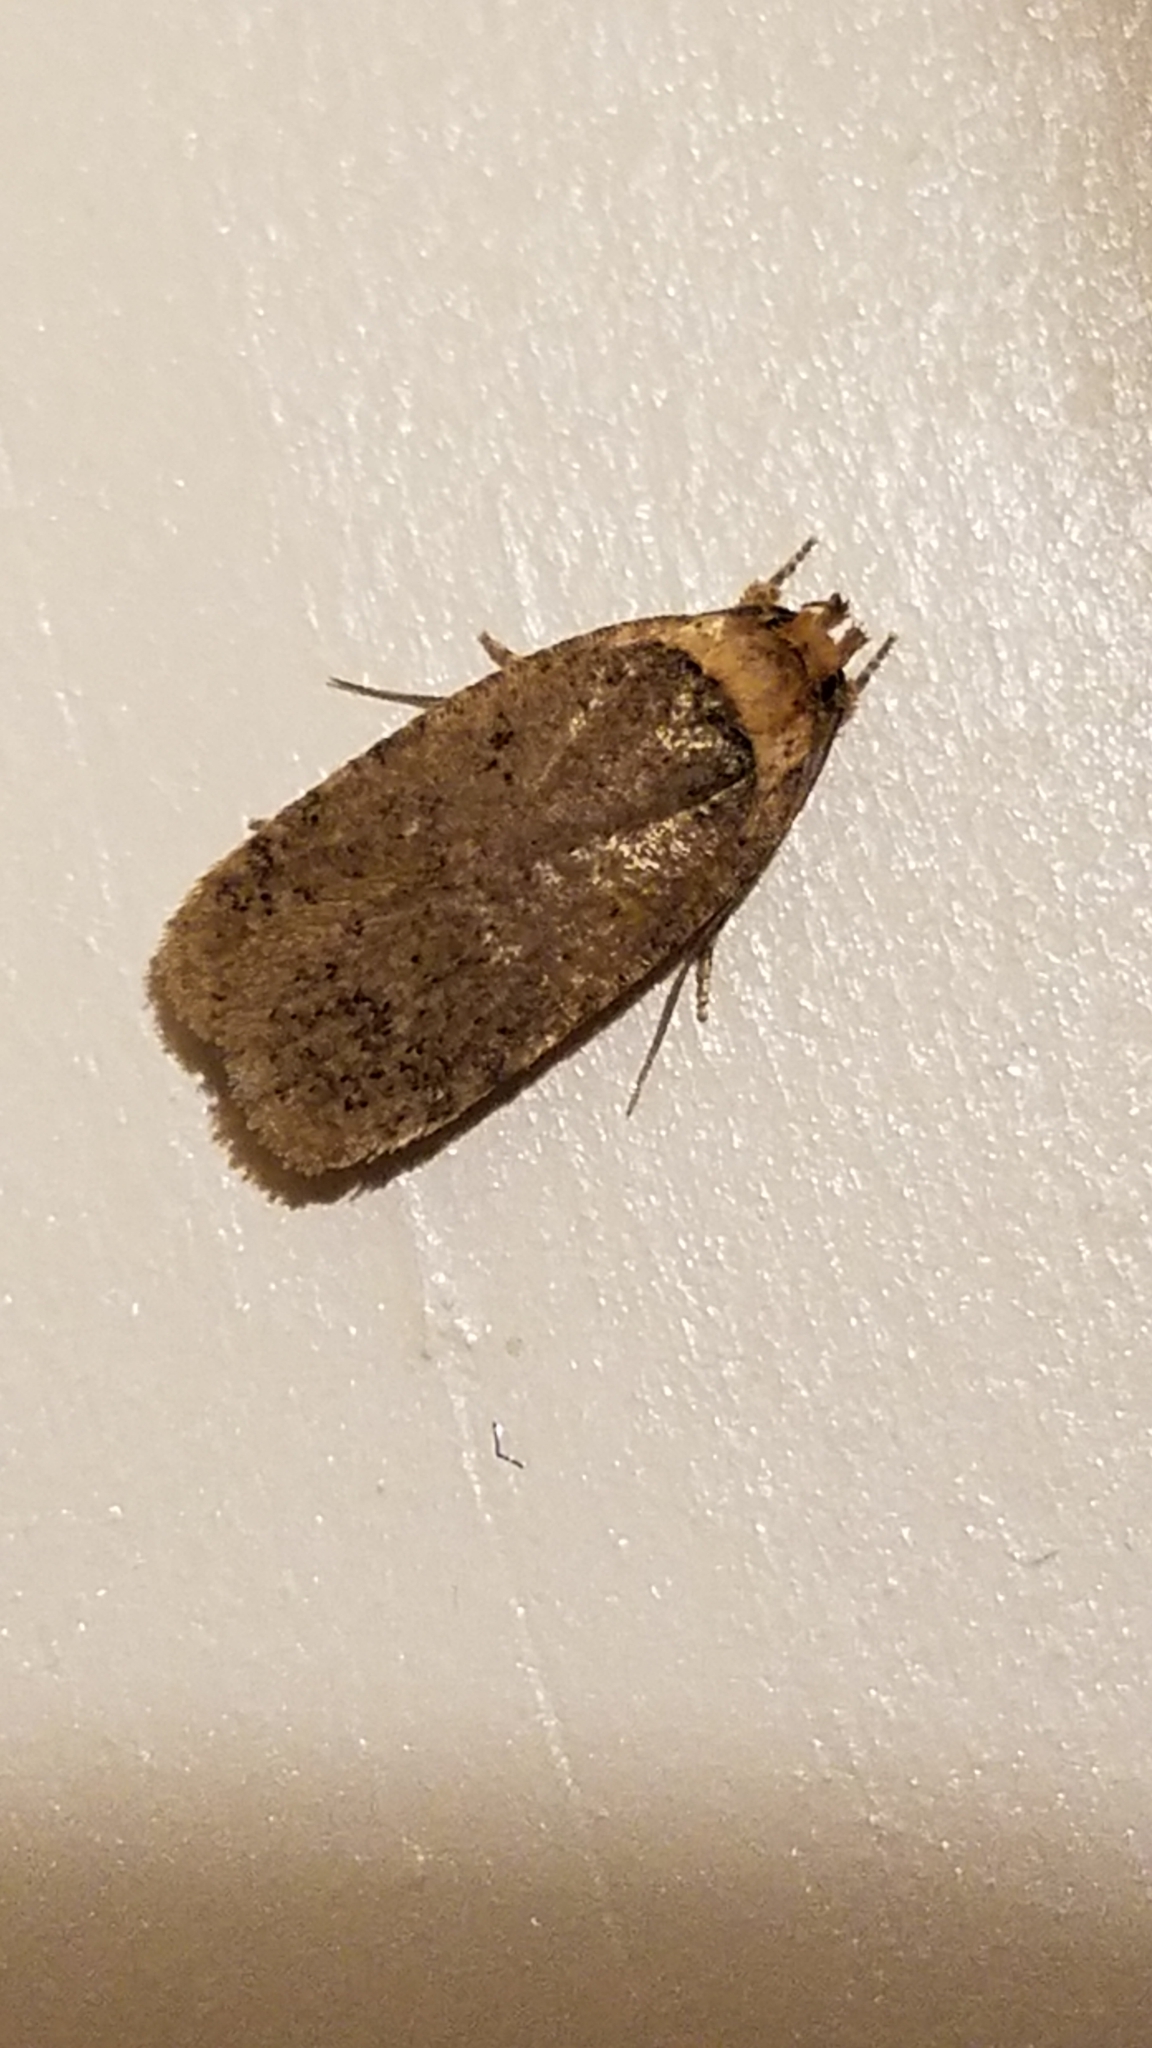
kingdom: Animalia
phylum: Arthropoda
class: Insecta
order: Lepidoptera
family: Depressariidae
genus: Depressaria
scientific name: Depressaria depressana
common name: Lost flat-body
